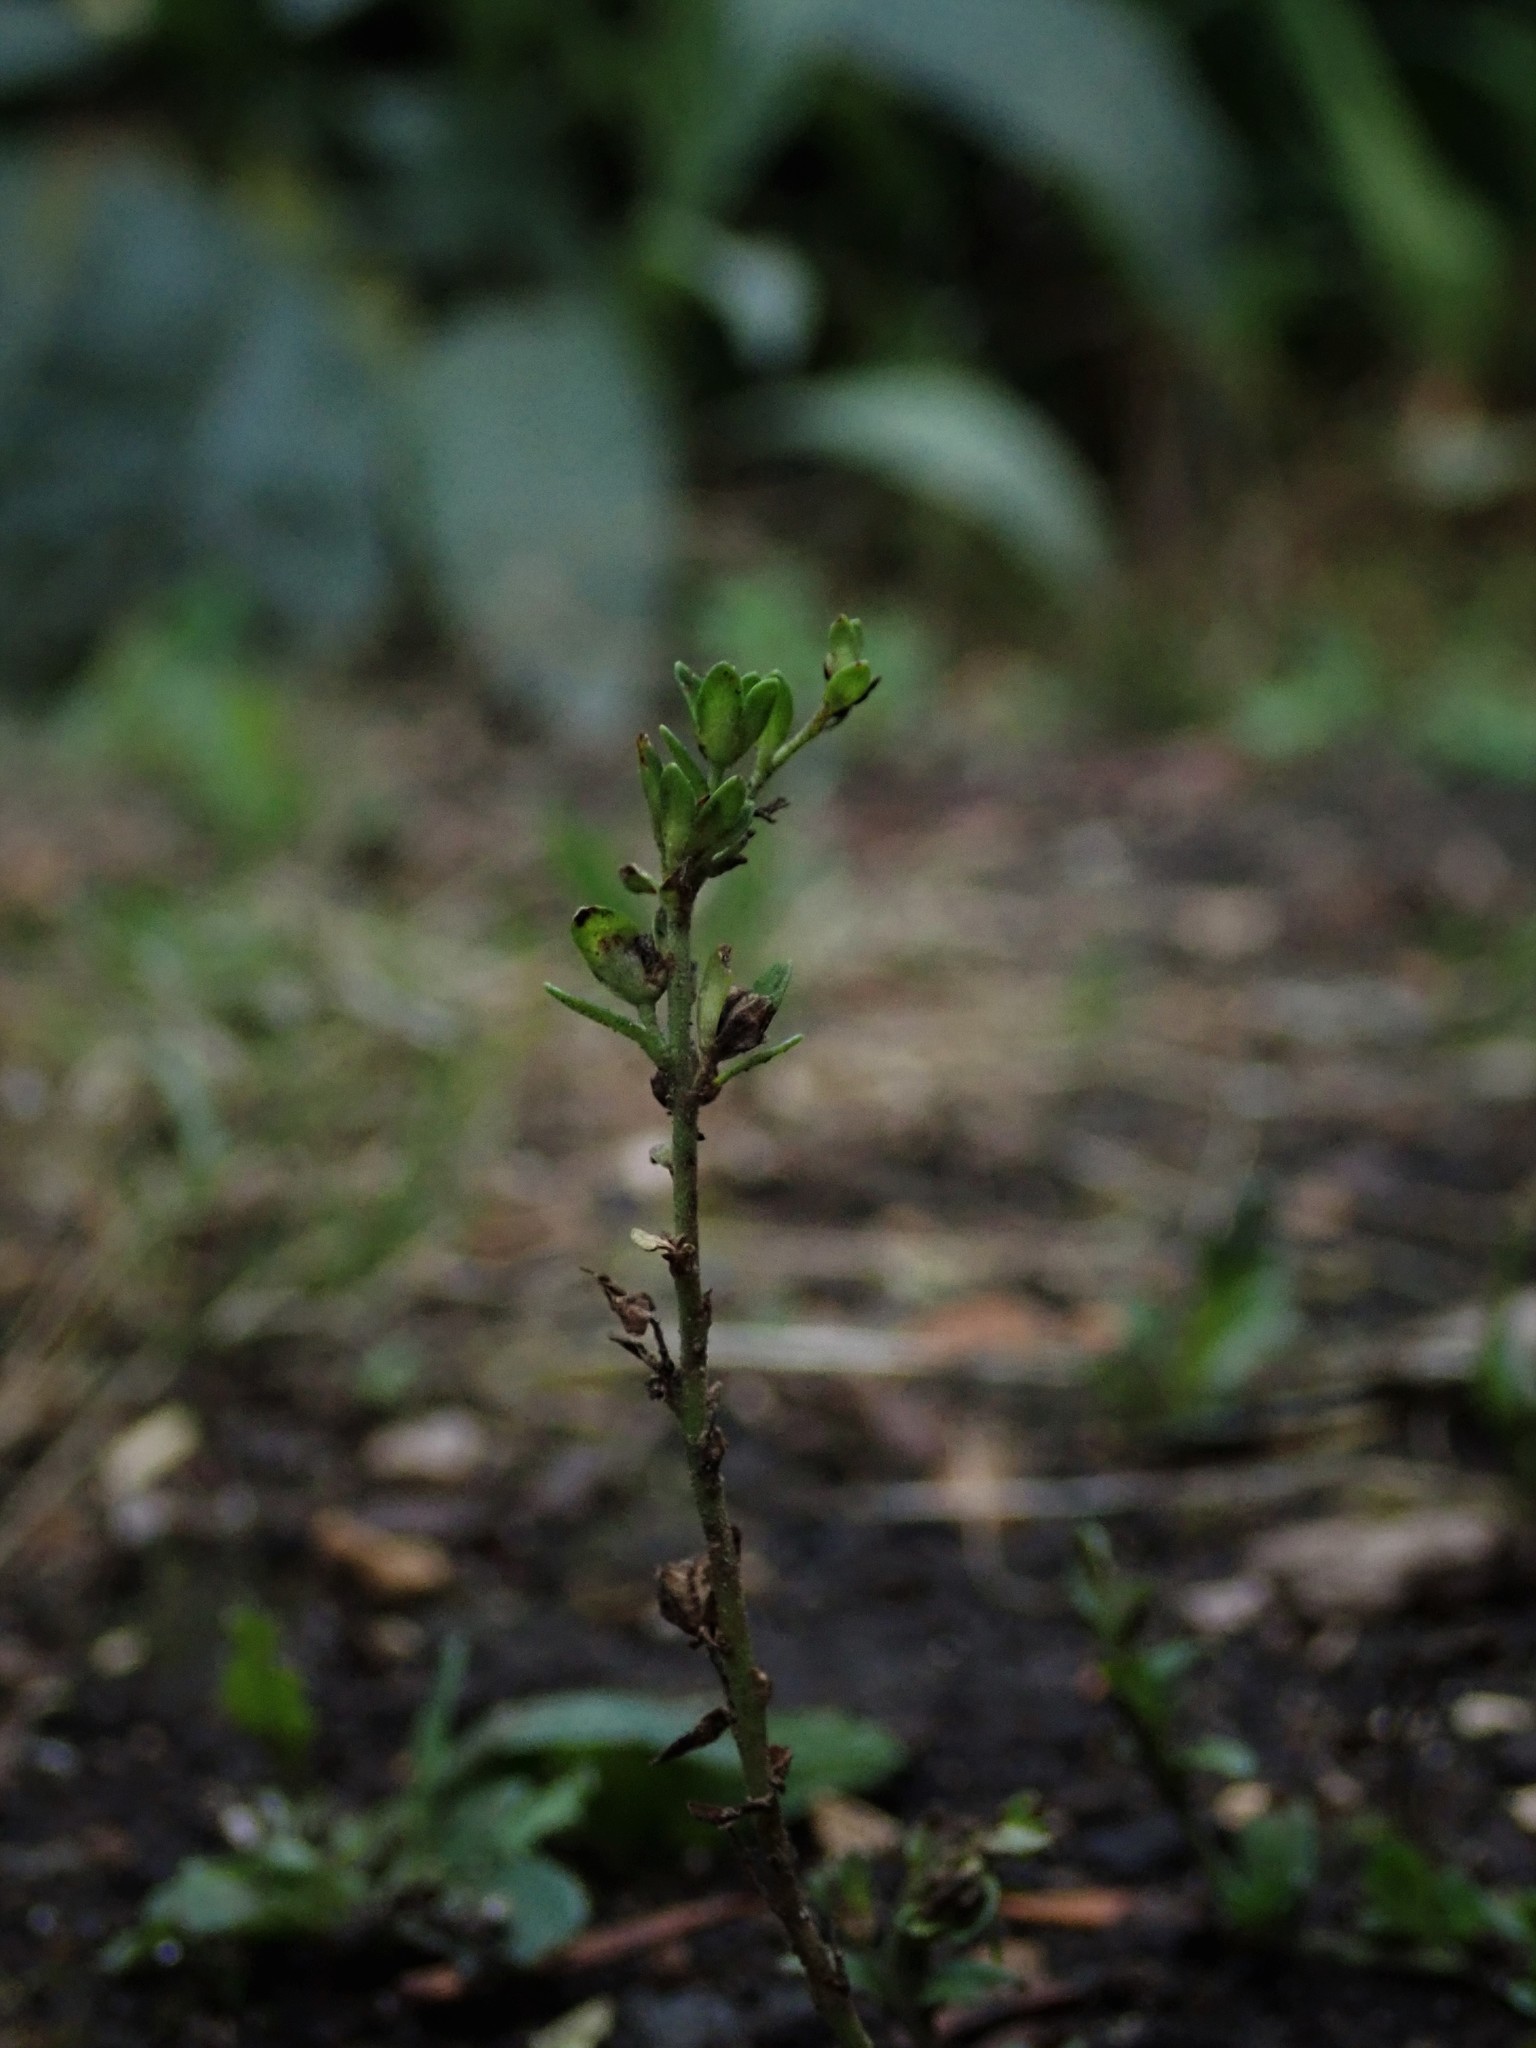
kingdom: Plantae
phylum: Tracheophyta
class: Magnoliopsida
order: Lamiales
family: Plantaginaceae
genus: Veronica
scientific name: Veronica serpyllifolia
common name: Thyme-leaved speedwell
